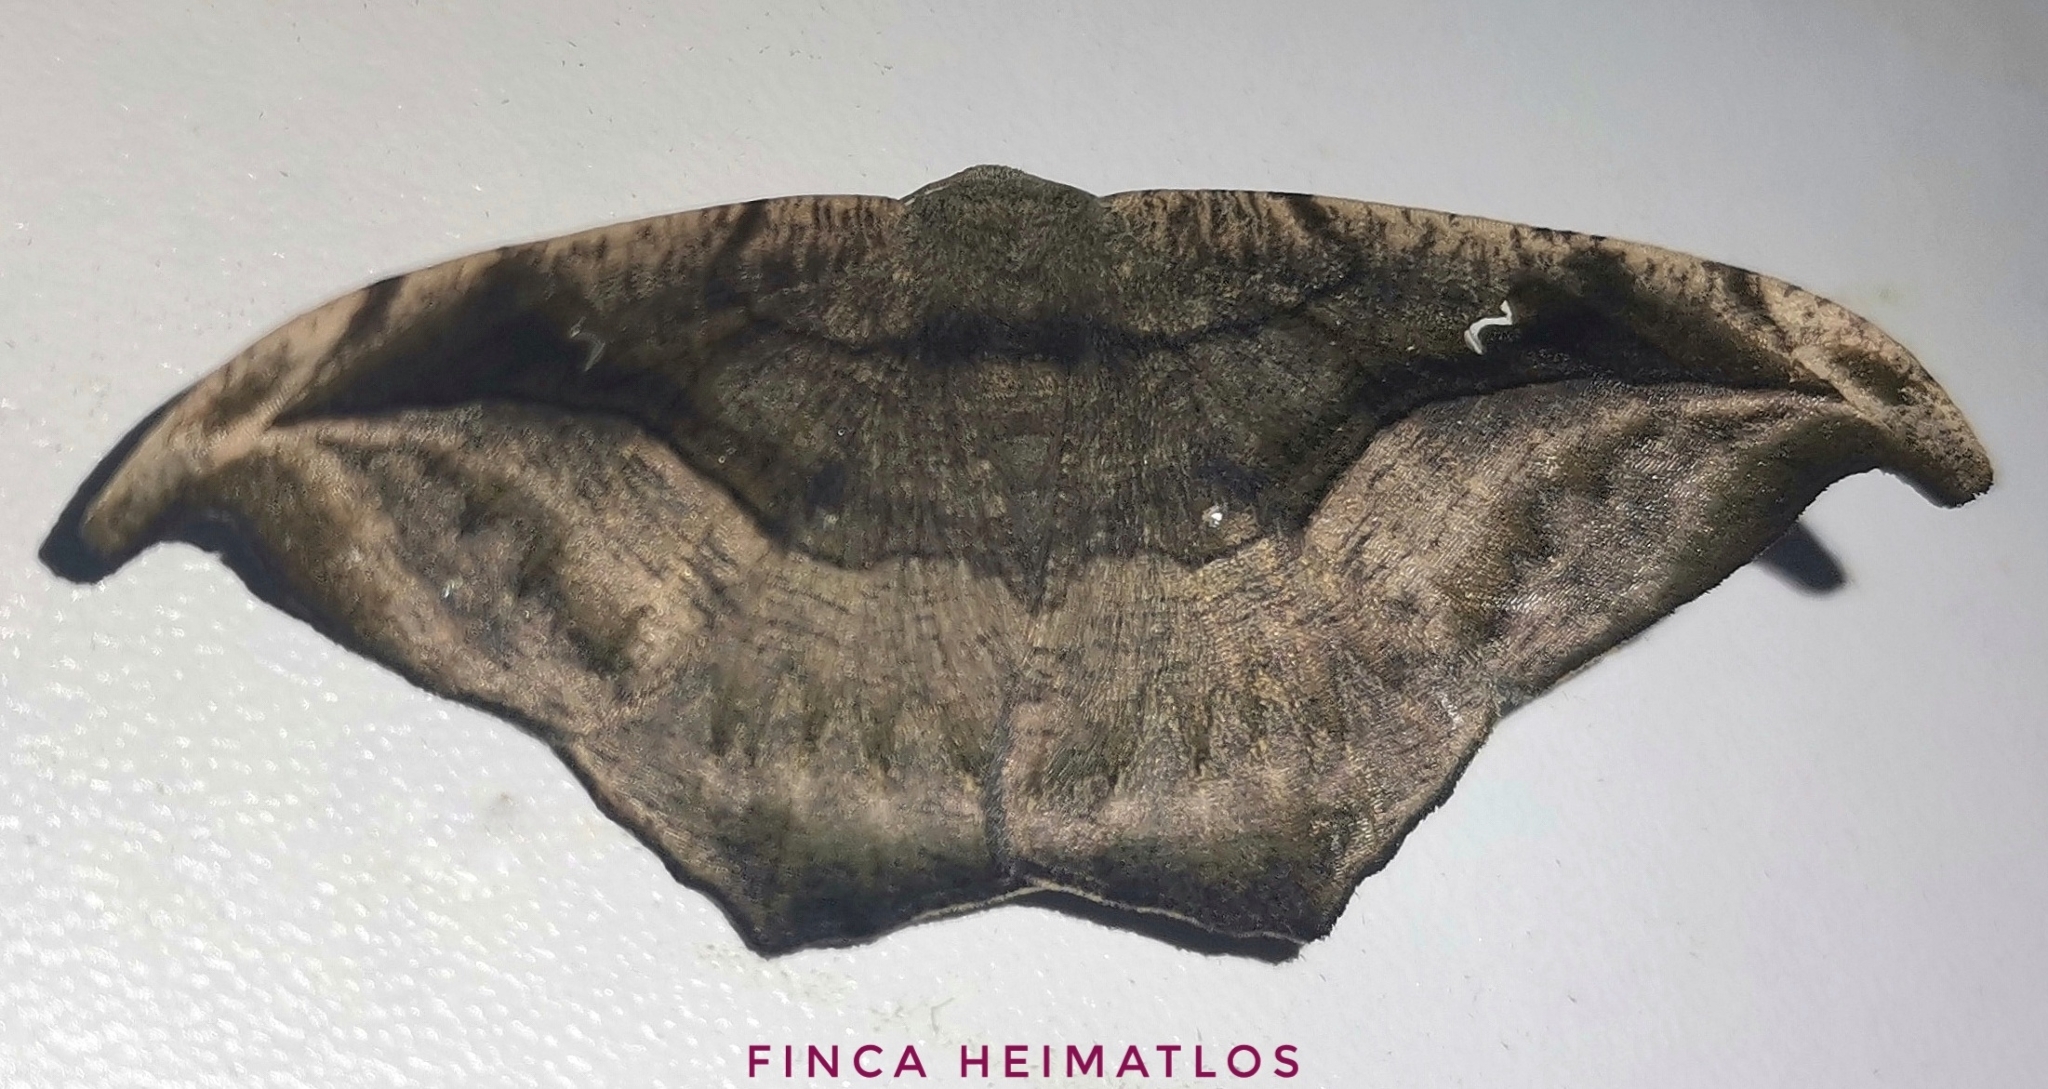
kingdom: Animalia
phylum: Arthropoda
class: Insecta
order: Lepidoptera
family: Geometridae
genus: Oxydia
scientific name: Oxydia scriptipennaria
